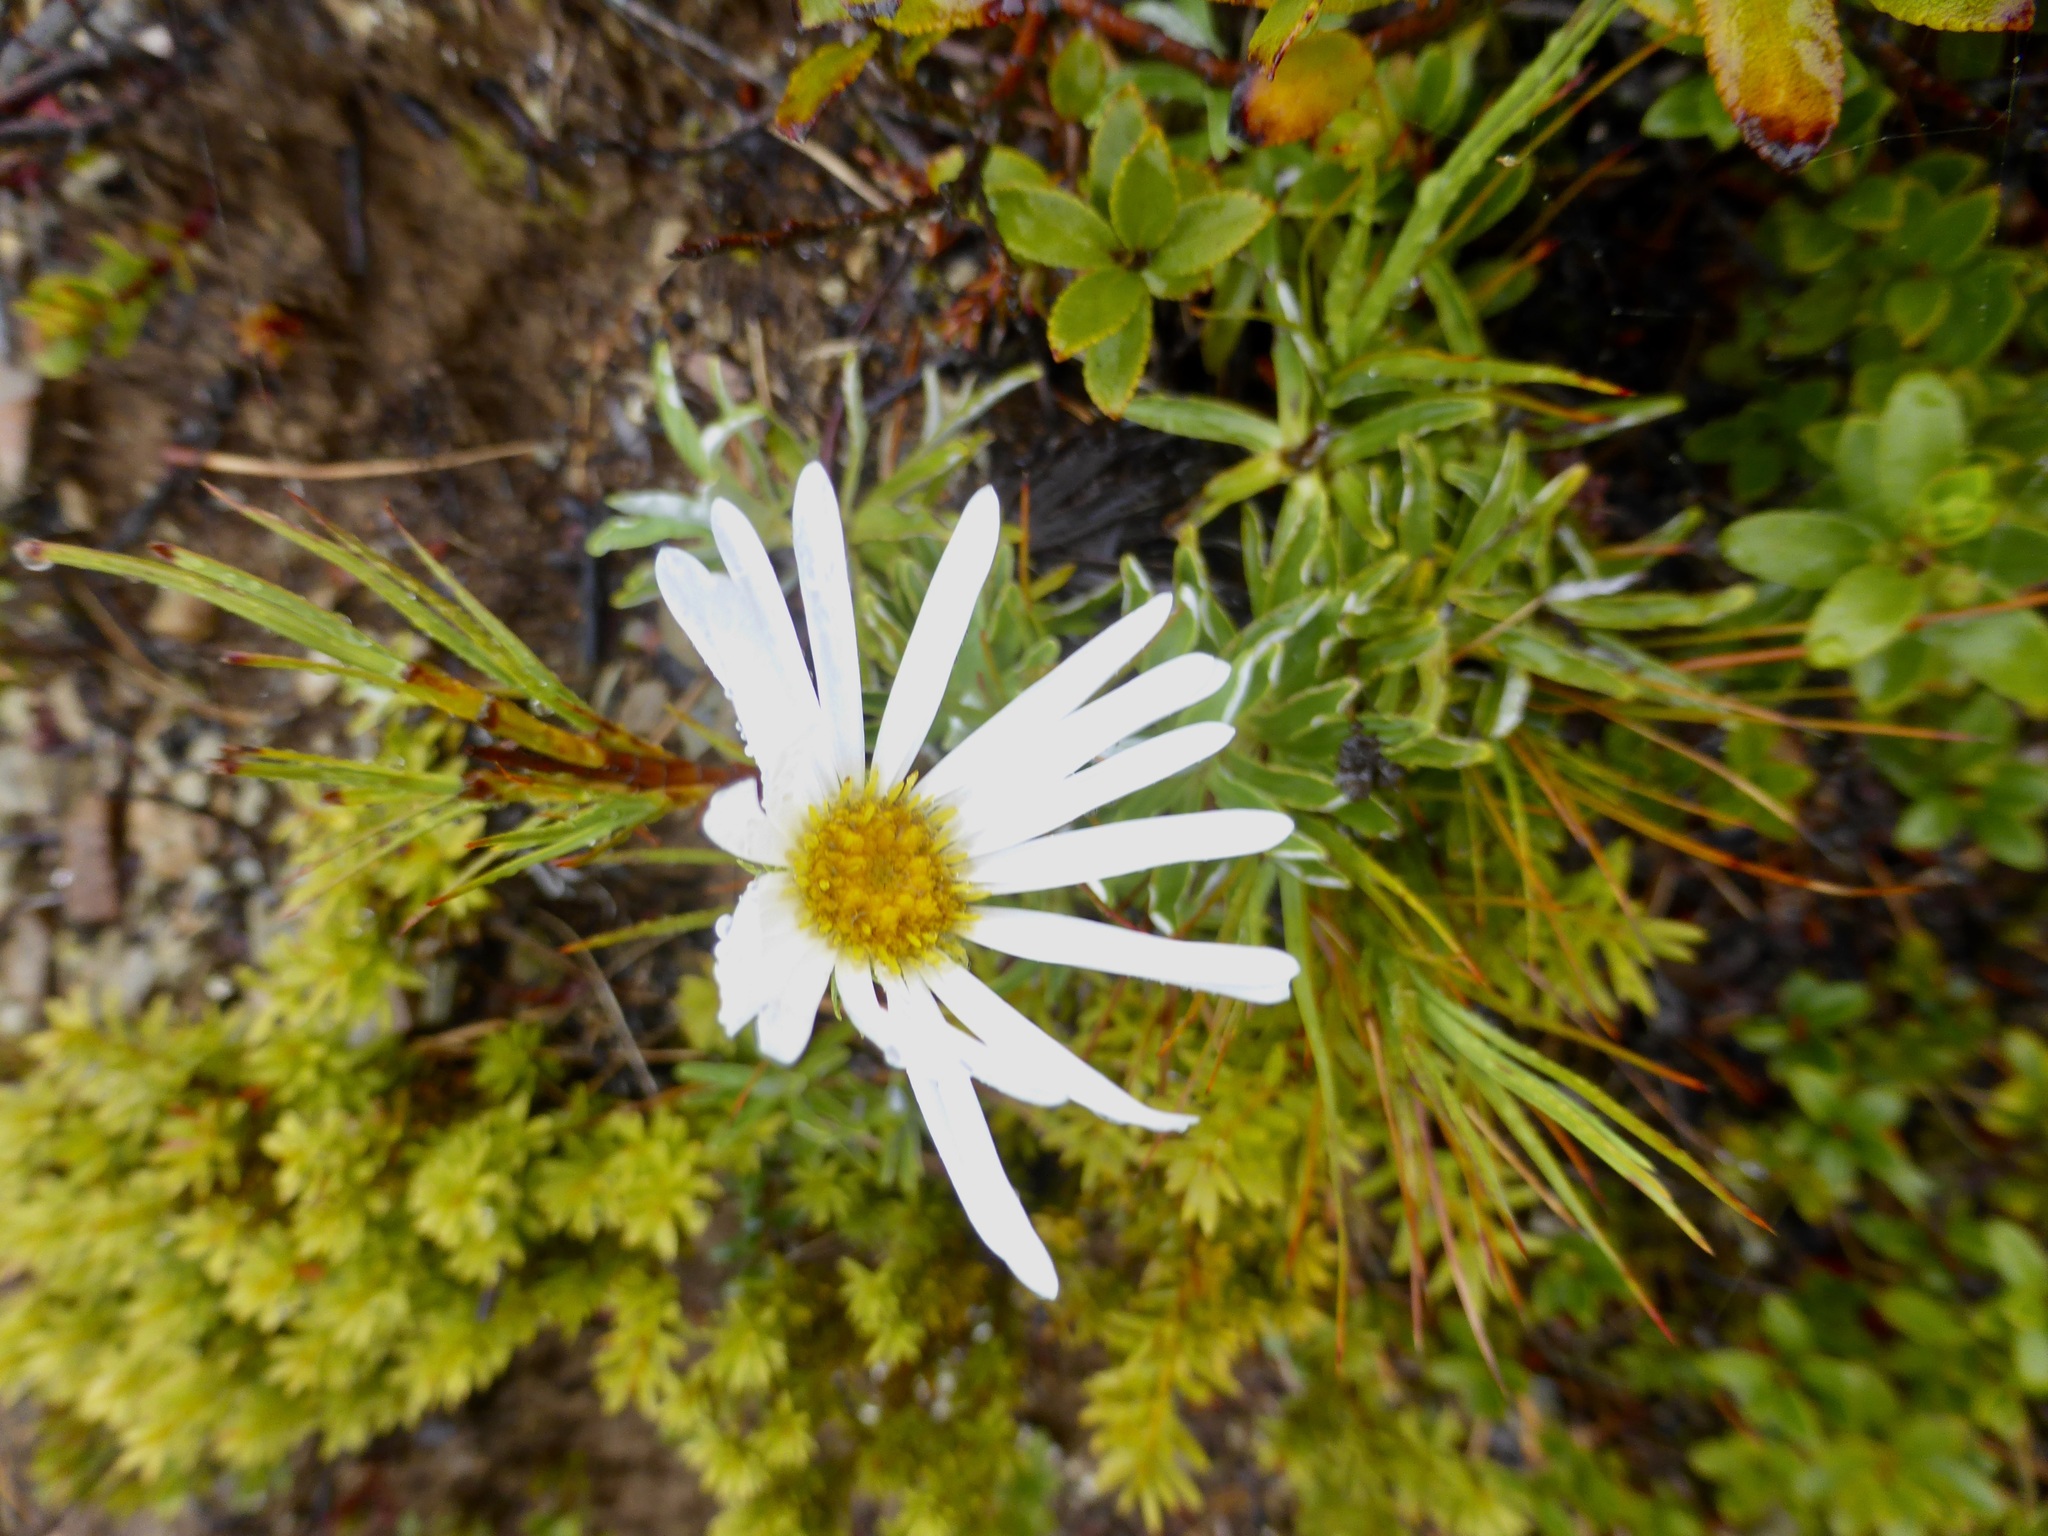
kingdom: Plantae
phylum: Tracheophyta
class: Magnoliopsida
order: Asterales
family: Asteraceae
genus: Celmisia
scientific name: Celmisia angustifolia
